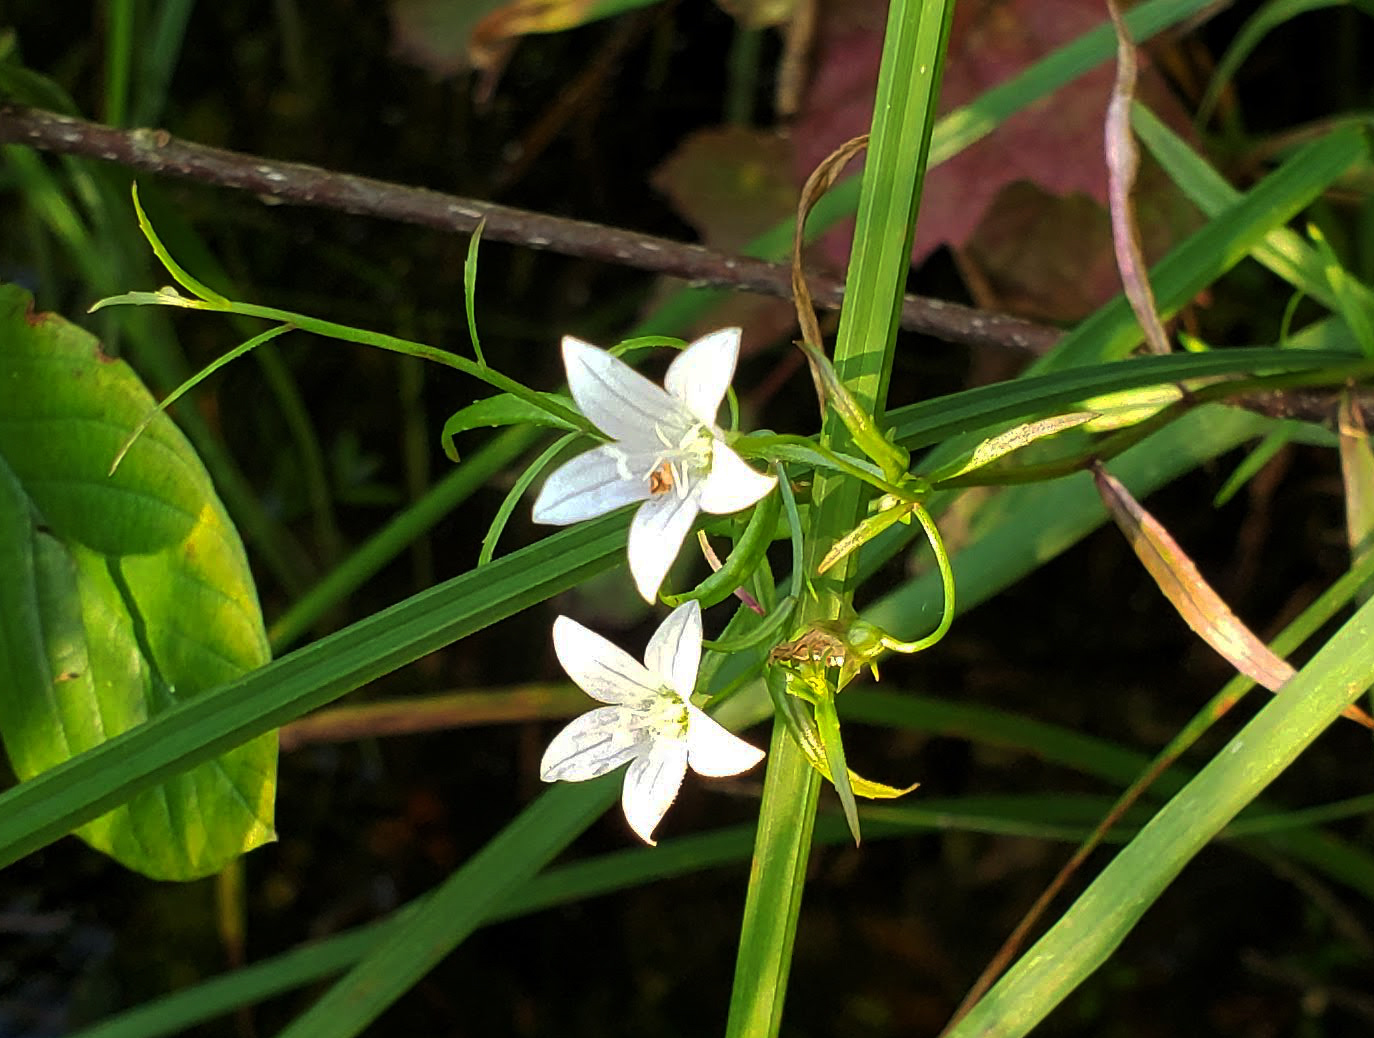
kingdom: Plantae
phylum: Tracheophyta
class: Magnoliopsida
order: Asterales
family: Campanulaceae
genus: Palustricodon
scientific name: Palustricodon aparinoides
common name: Bedstraw bellflower
